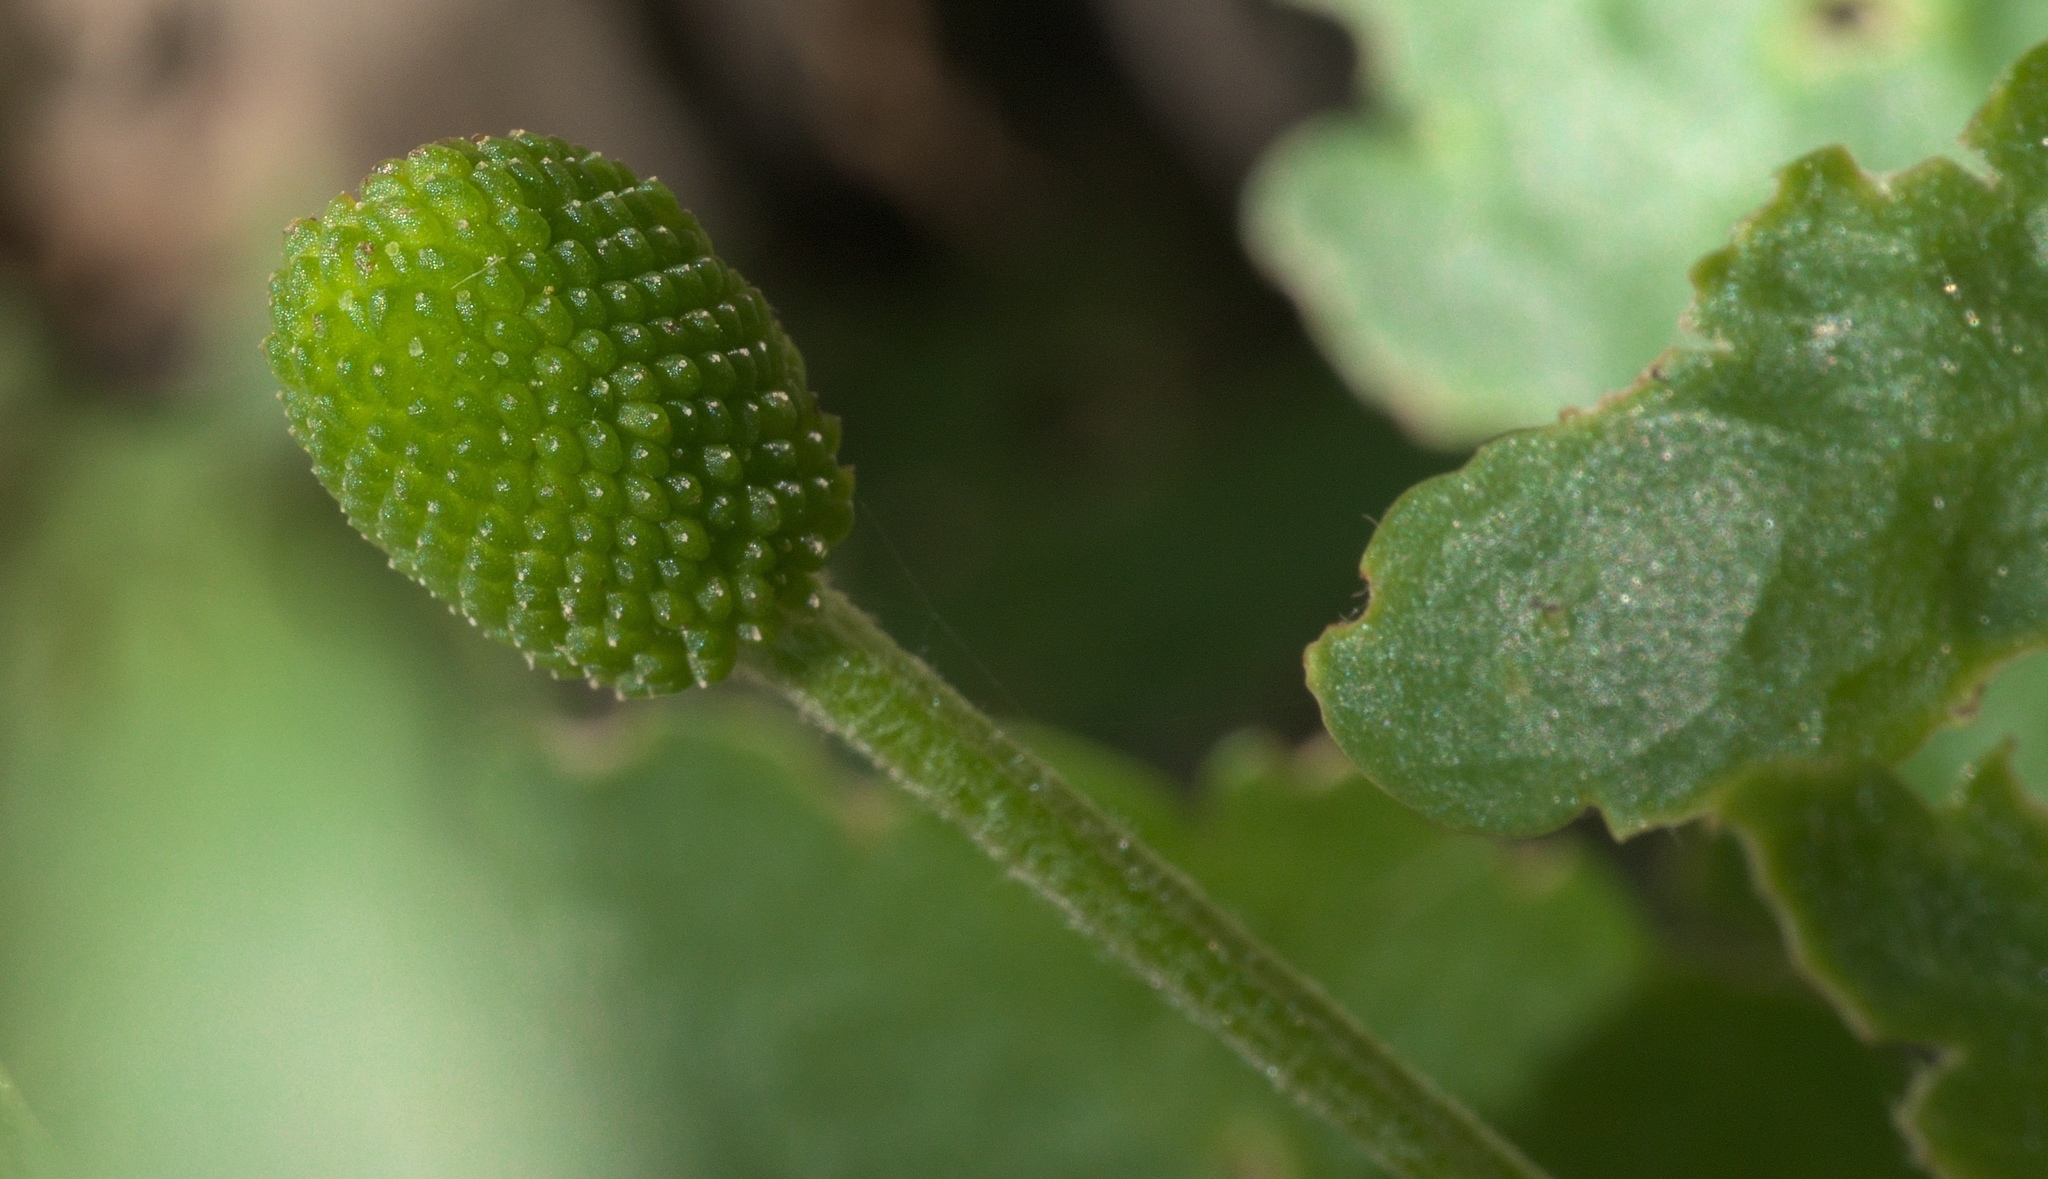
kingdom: Plantae
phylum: Tracheophyta
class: Magnoliopsida
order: Ranunculales
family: Ranunculaceae
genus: Ranunculus
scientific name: Ranunculus micranthus
